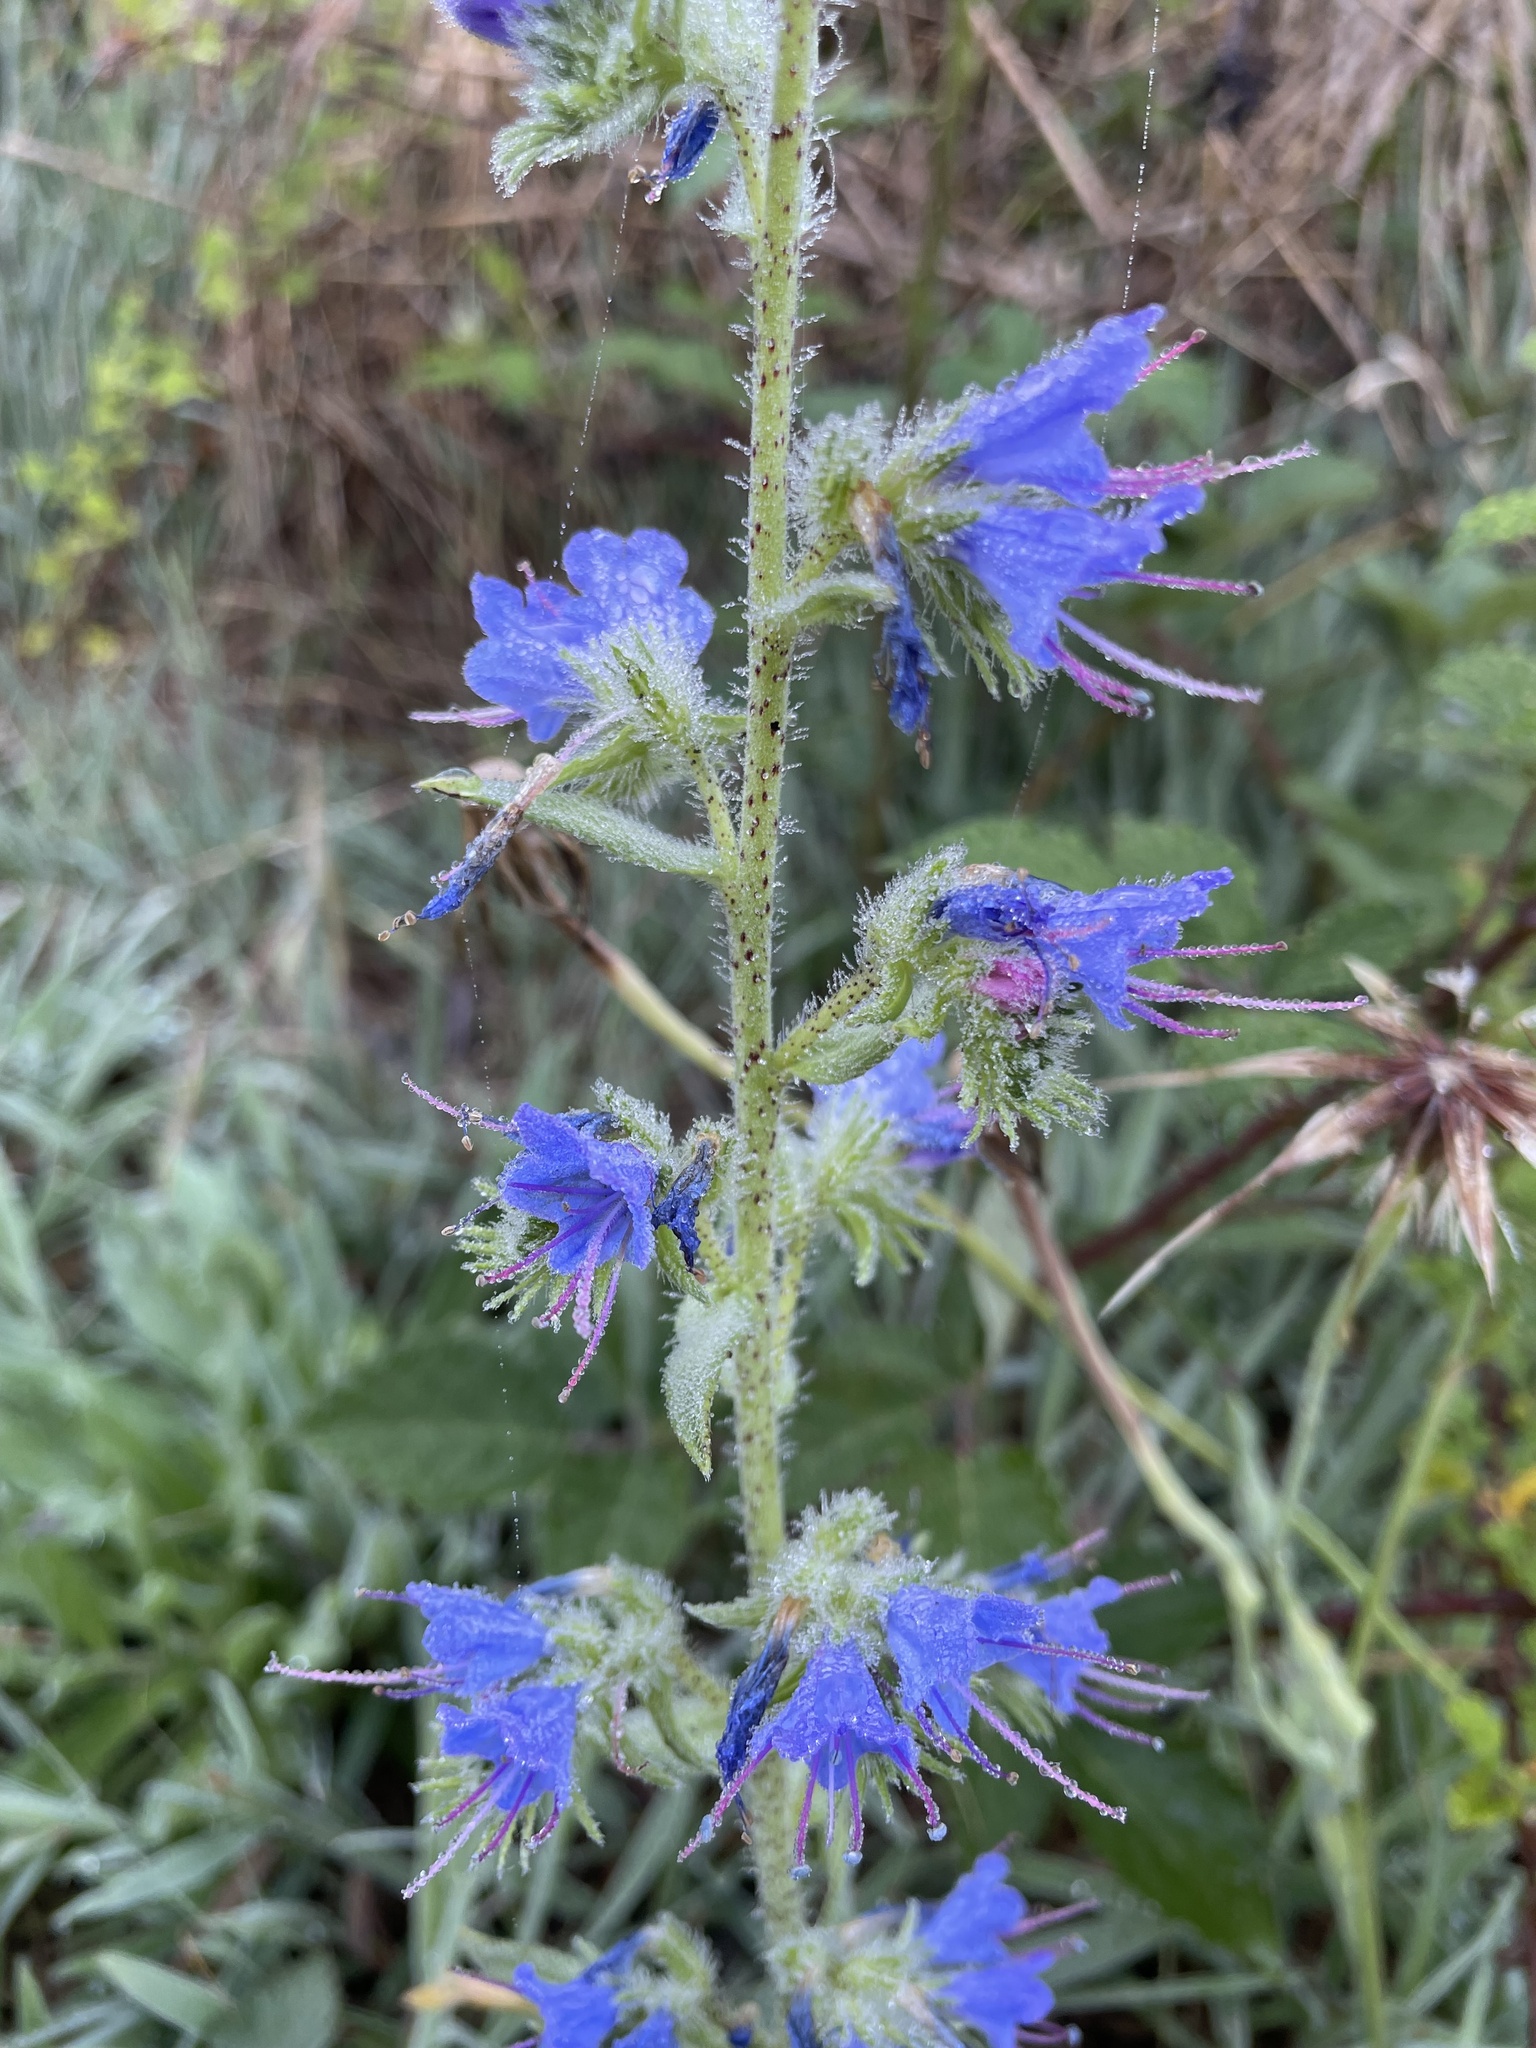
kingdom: Plantae
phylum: Tracheophyta
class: Magnoliopsida
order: Boraginales
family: Boraginaceae
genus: Echium
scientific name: Echium vulgare
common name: Common viper's bugloss
